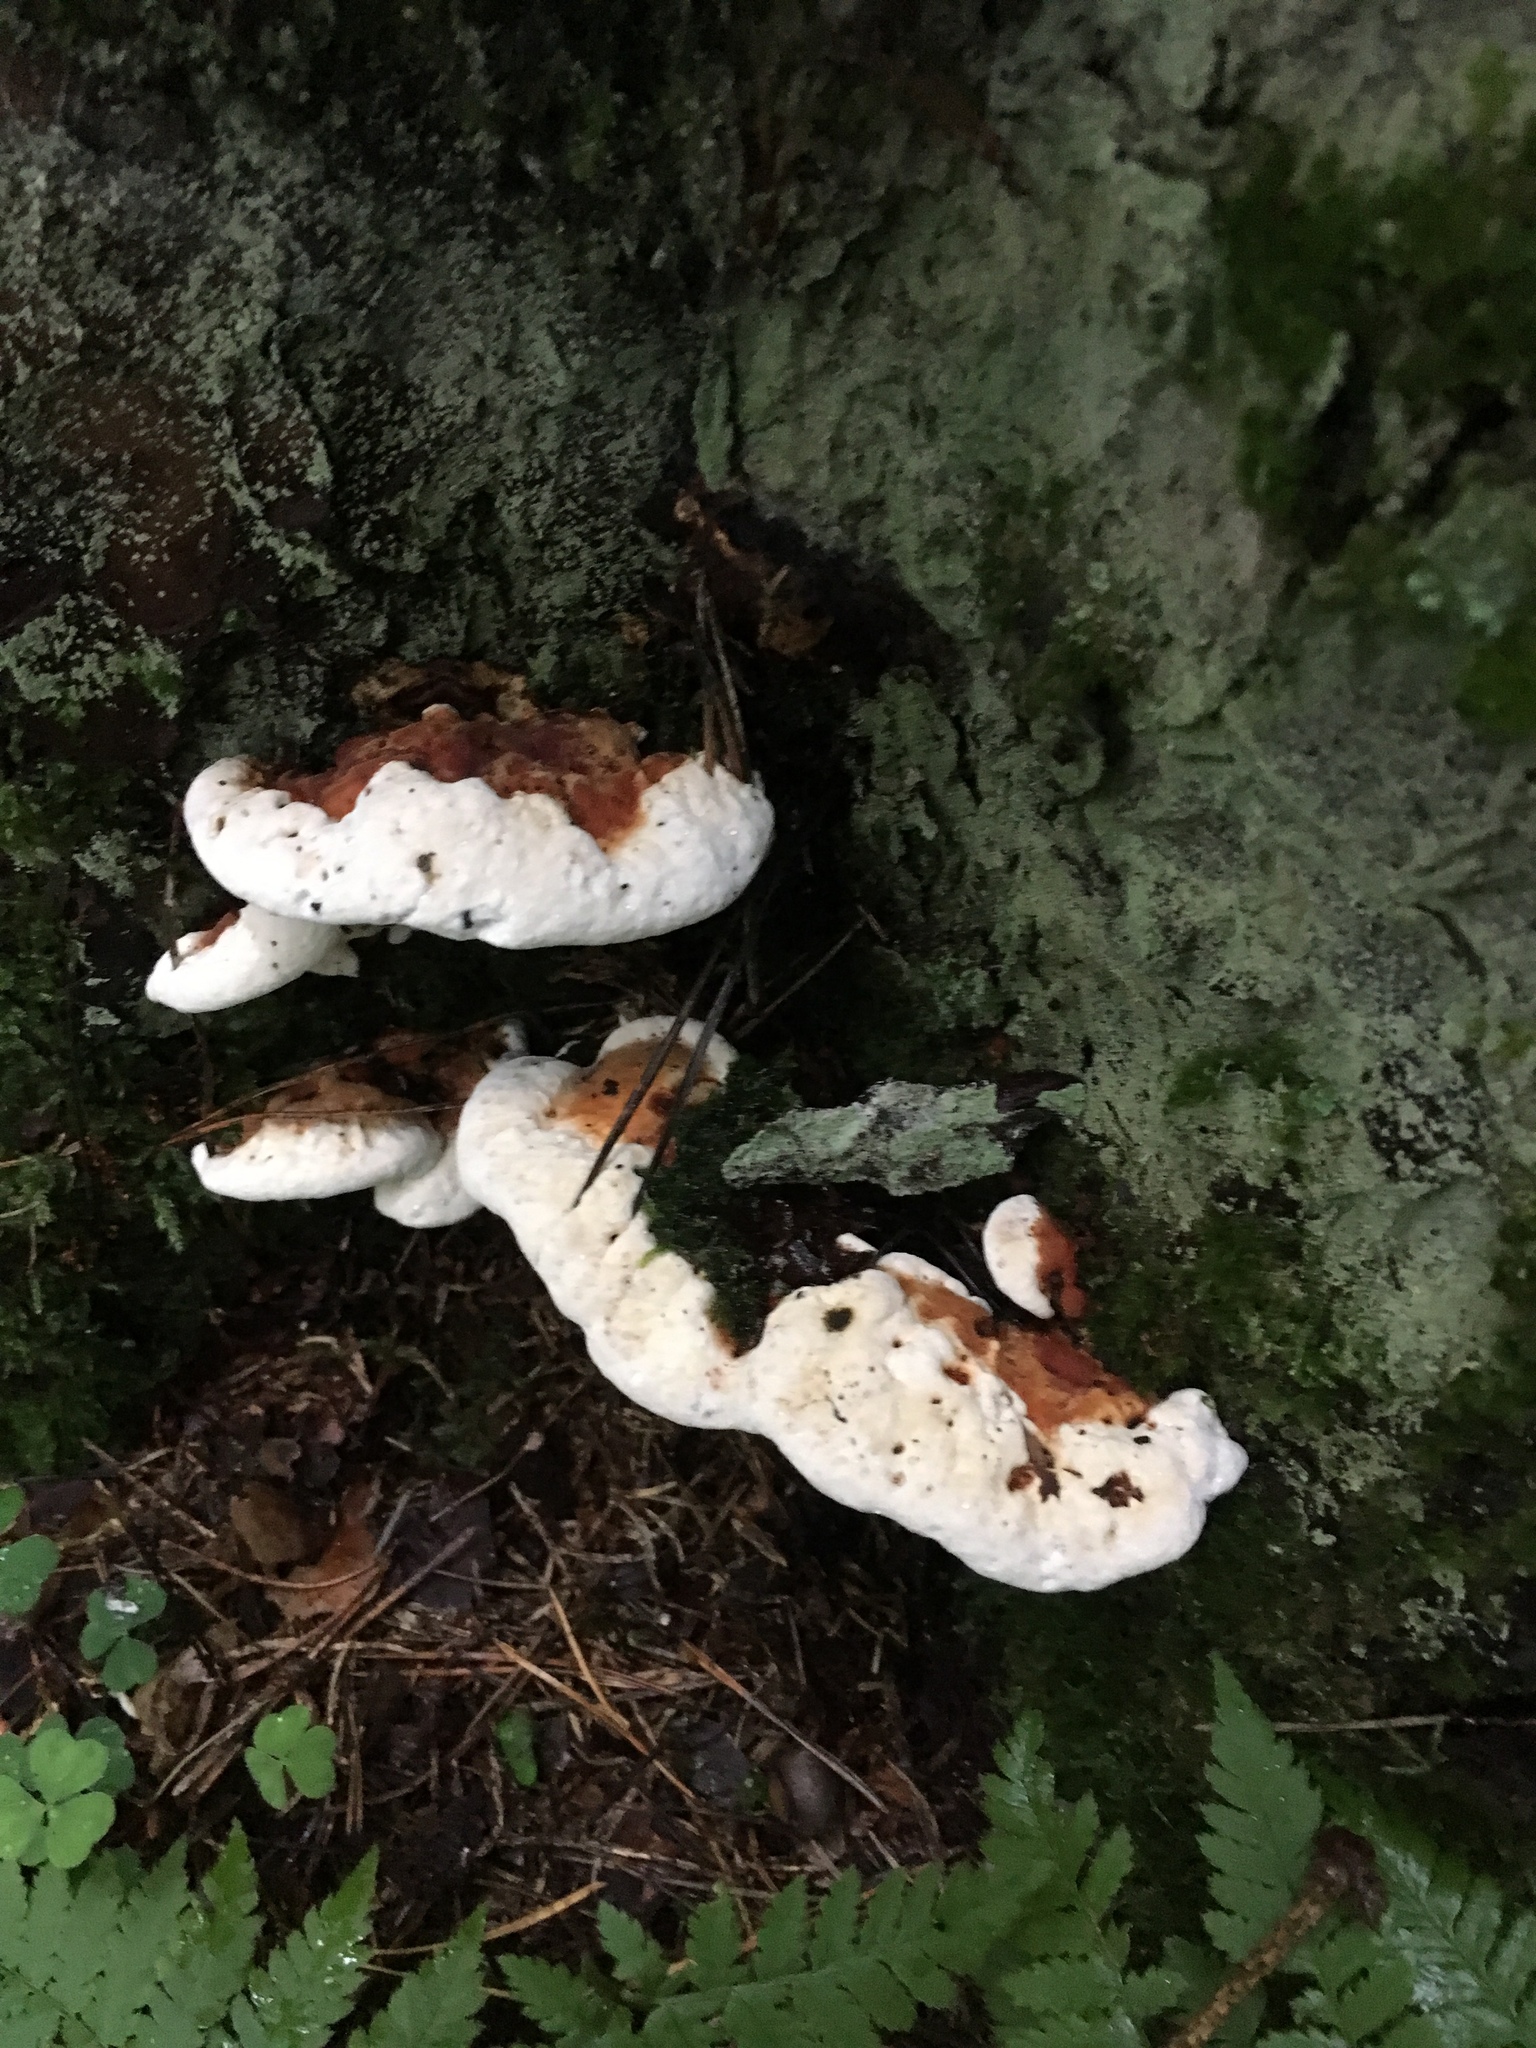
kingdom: Fungi
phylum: Basidiomycota
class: Agaricomycetes
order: Russulales
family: Bondarzewiaceae
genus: Heterobasidion
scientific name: Heterobasidion annosum
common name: Root rot
